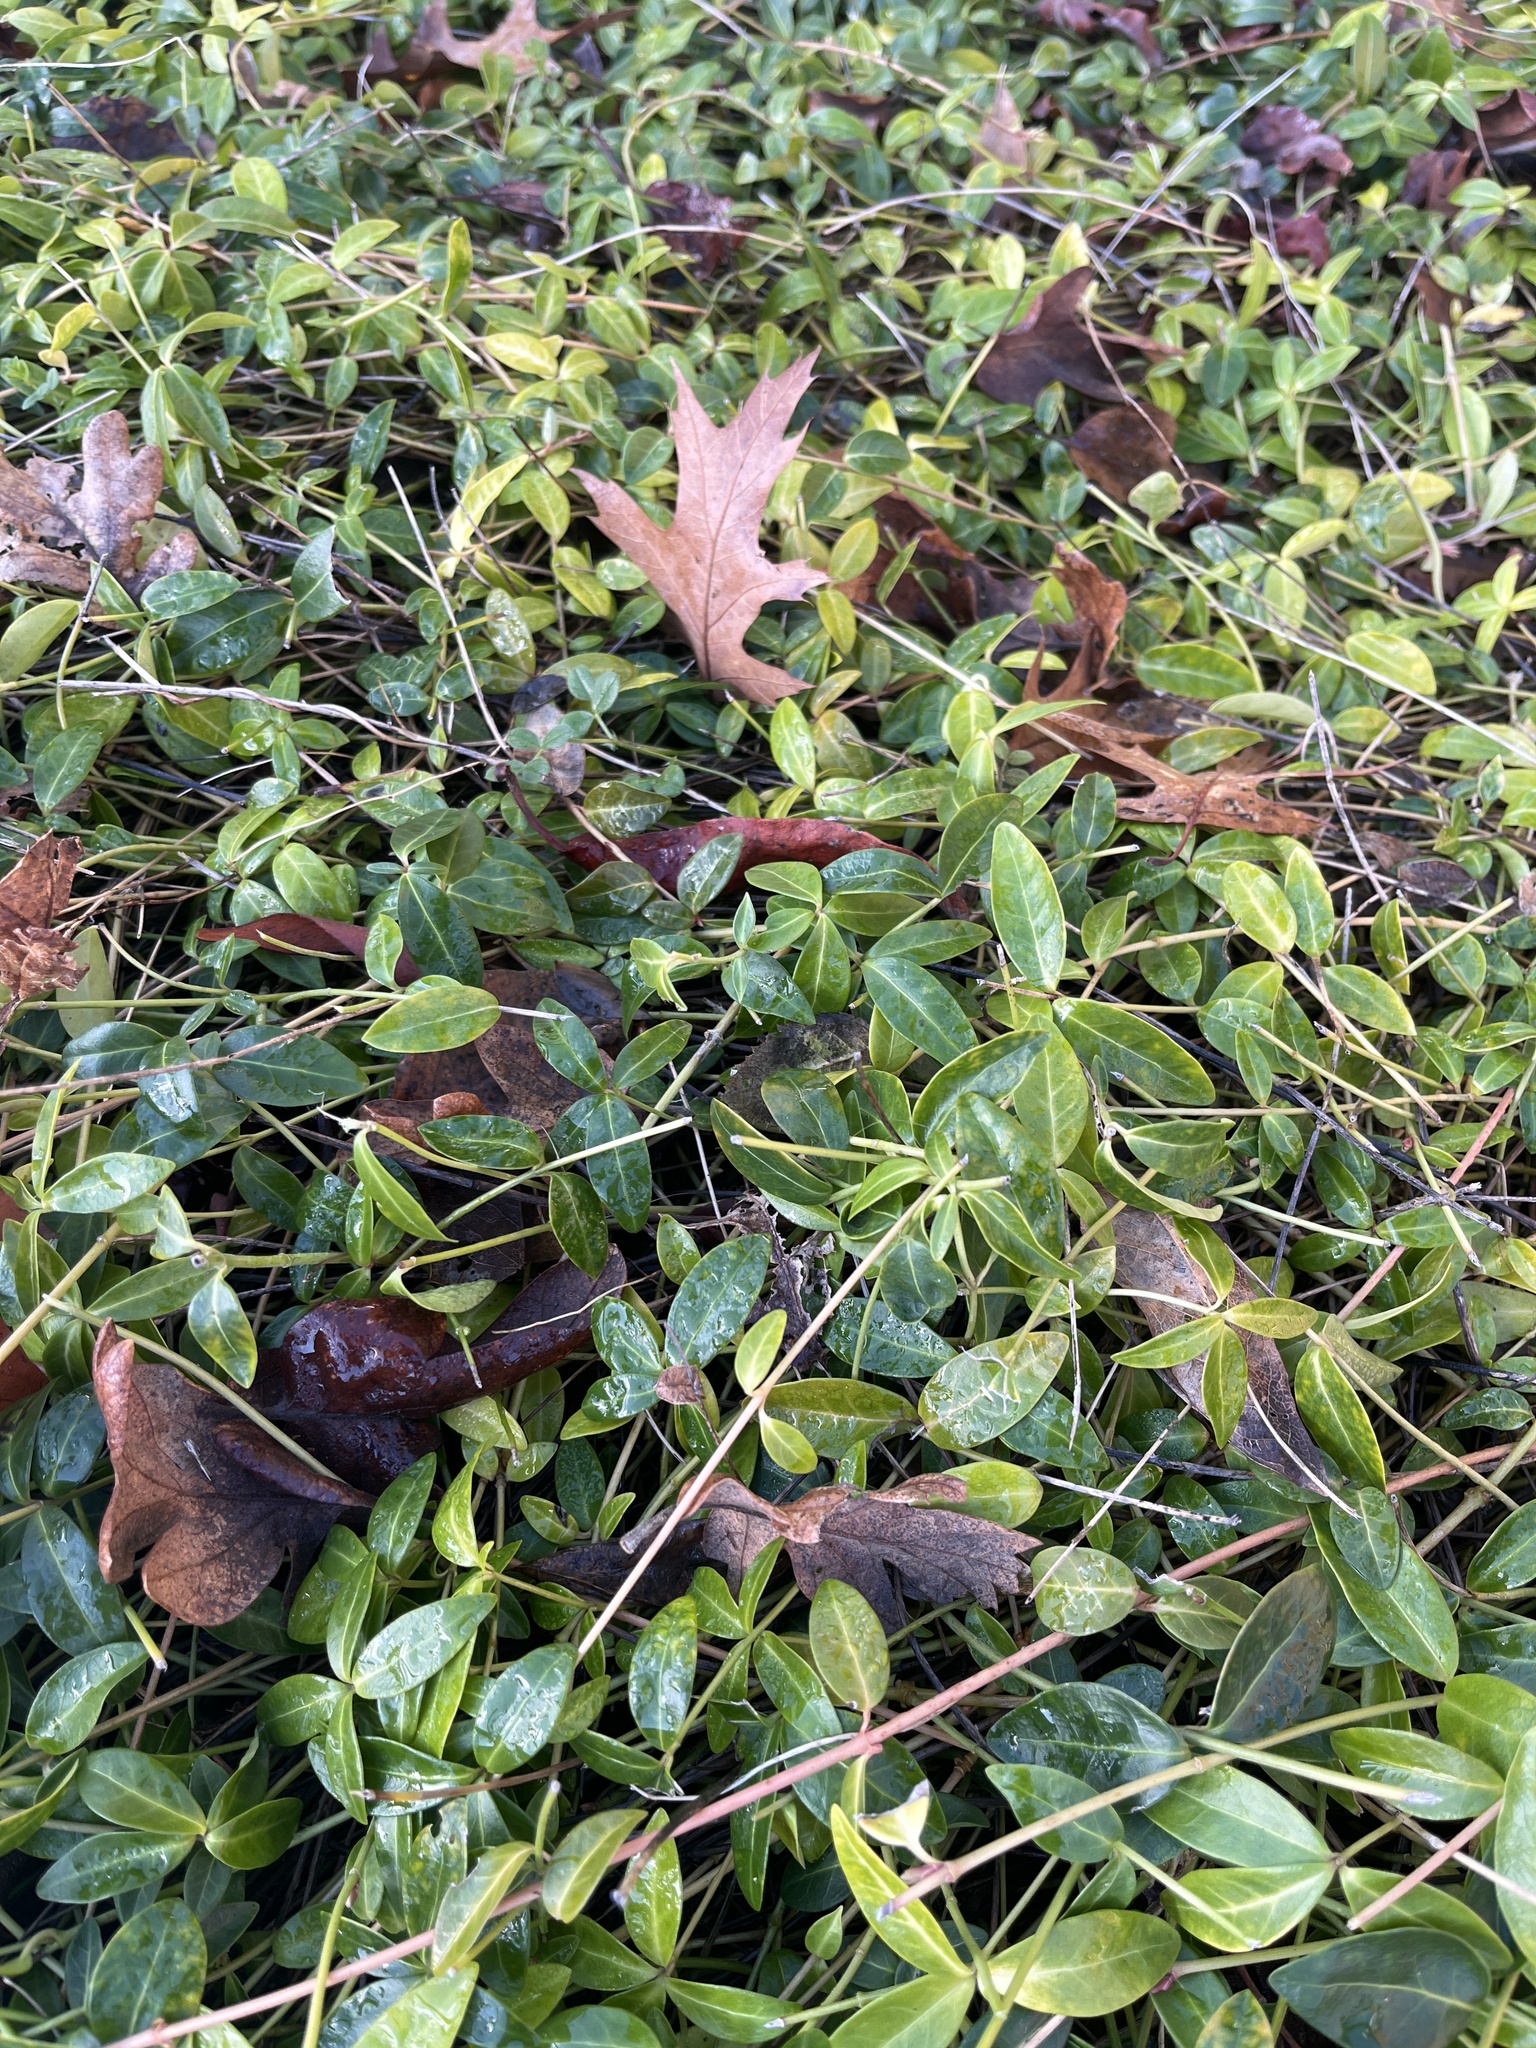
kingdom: Plantae
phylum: Tracheophyta
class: Magnoliopsida
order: Gentianales
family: Apocynaceae
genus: Vinca
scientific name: Vinca minor
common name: Lesser periwinkle
